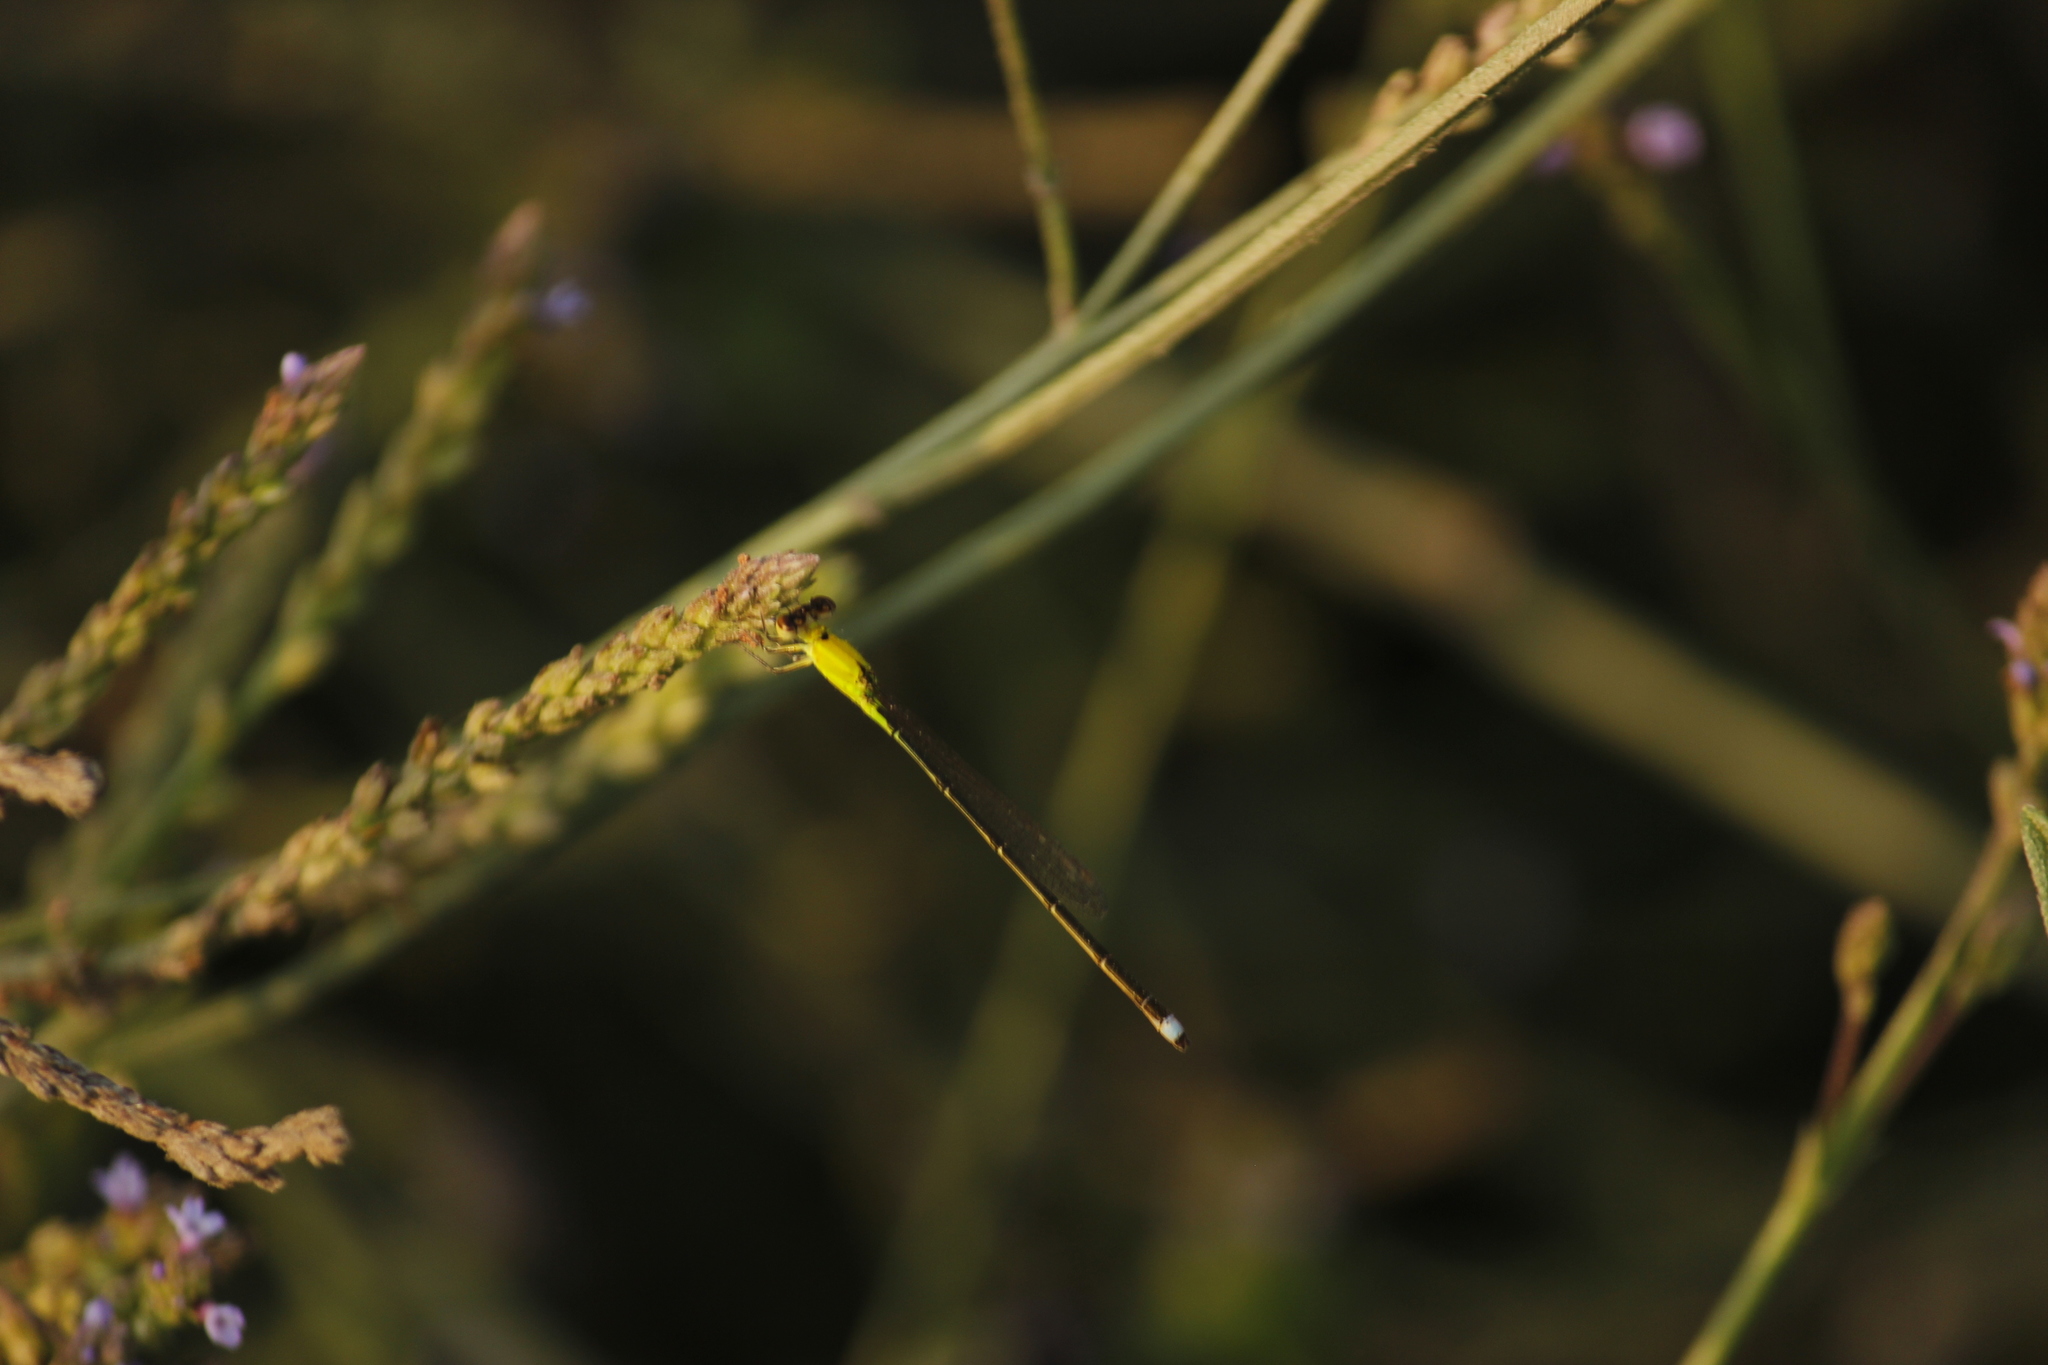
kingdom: Animalia
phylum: Arthropoda
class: Insecta
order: Odonata
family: Coenagrionidae
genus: Ischnura
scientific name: Ischnura capreolus
